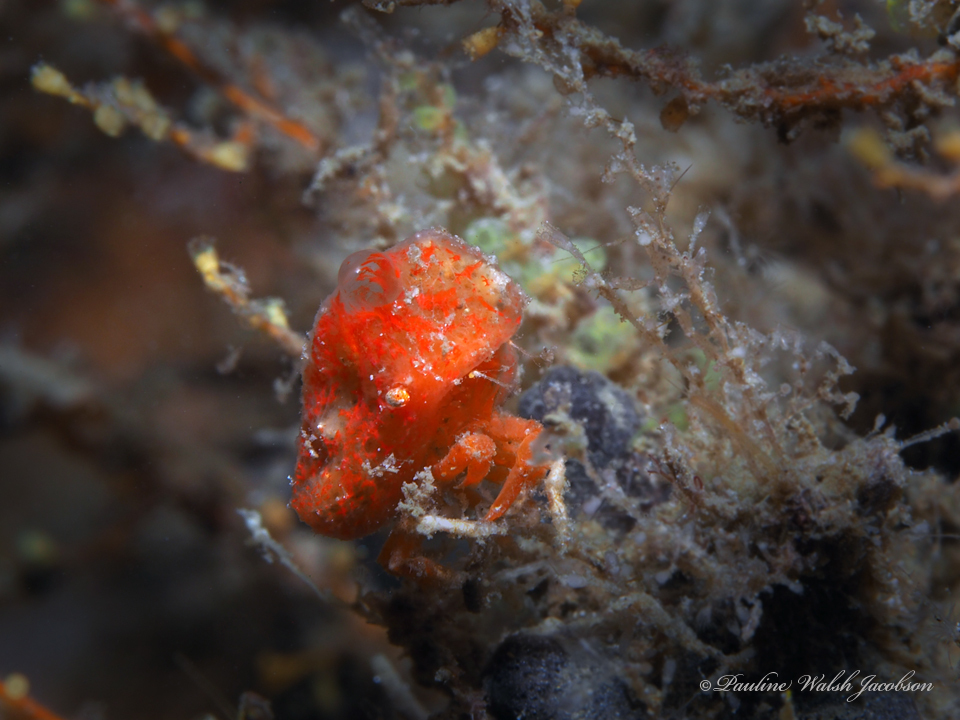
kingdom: Animalia
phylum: Arthropoda
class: Malacostraca
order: Decapoda
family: Epialtidae
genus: Macrocoeloma
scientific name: Macrocoeloma trispinosum
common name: Grass crab
